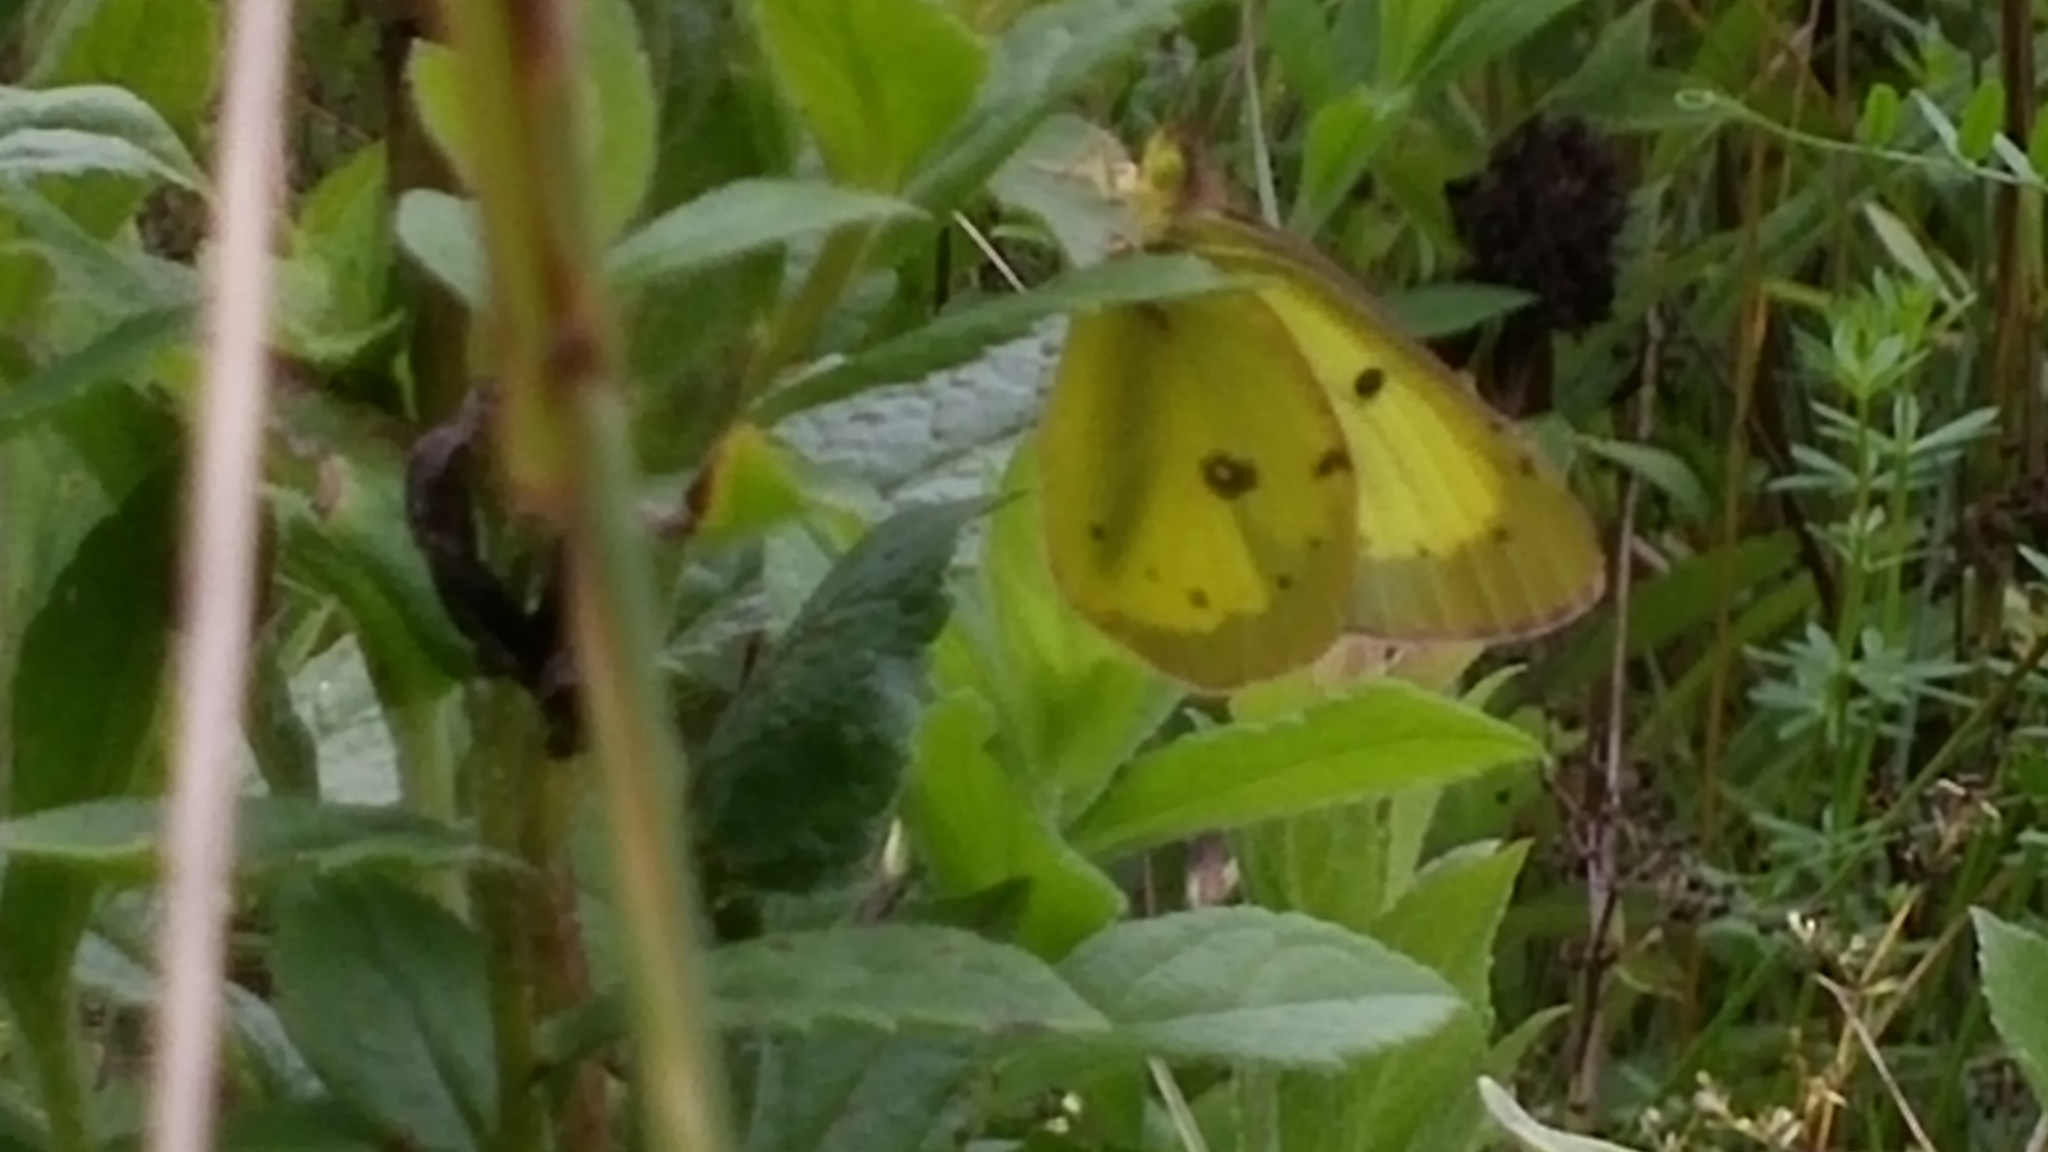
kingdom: Animalia
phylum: Arthropoda
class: Insecta
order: Lepidoptera
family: Pieridae
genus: Colias
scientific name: Colias philodice
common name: Clouded sulphur
